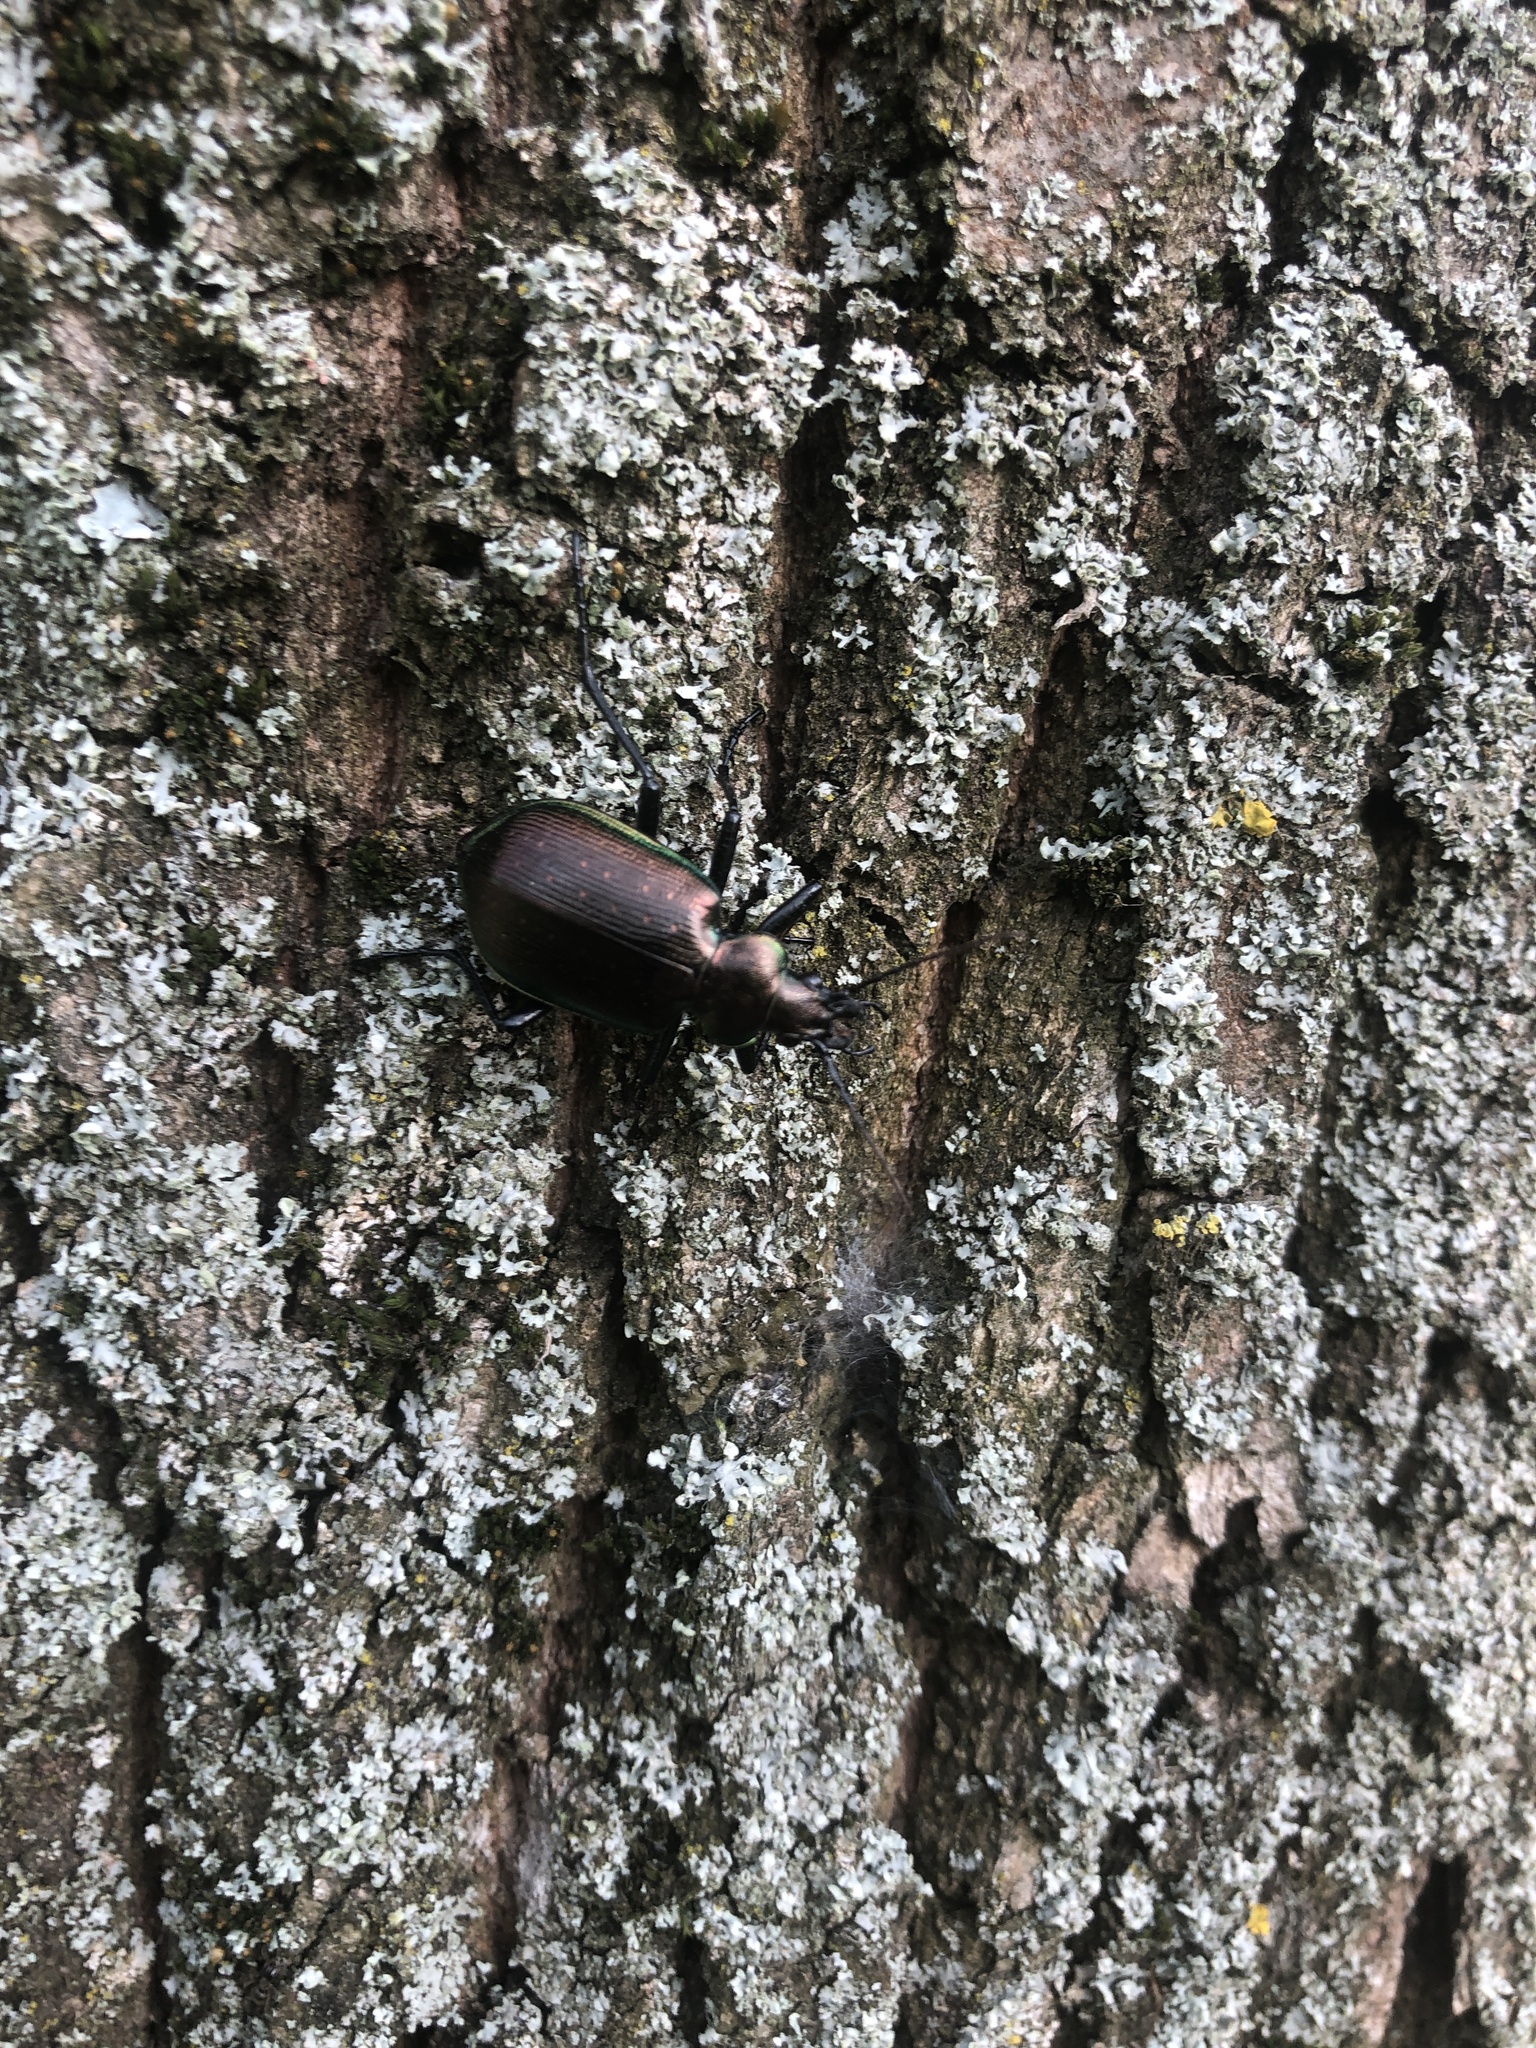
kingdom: Animalia
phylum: Arthropoda
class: Insecta
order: Coleoptera
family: Carabidae
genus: Calosoma
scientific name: Calosoma inquisitor
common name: Caterpillar-hunter
